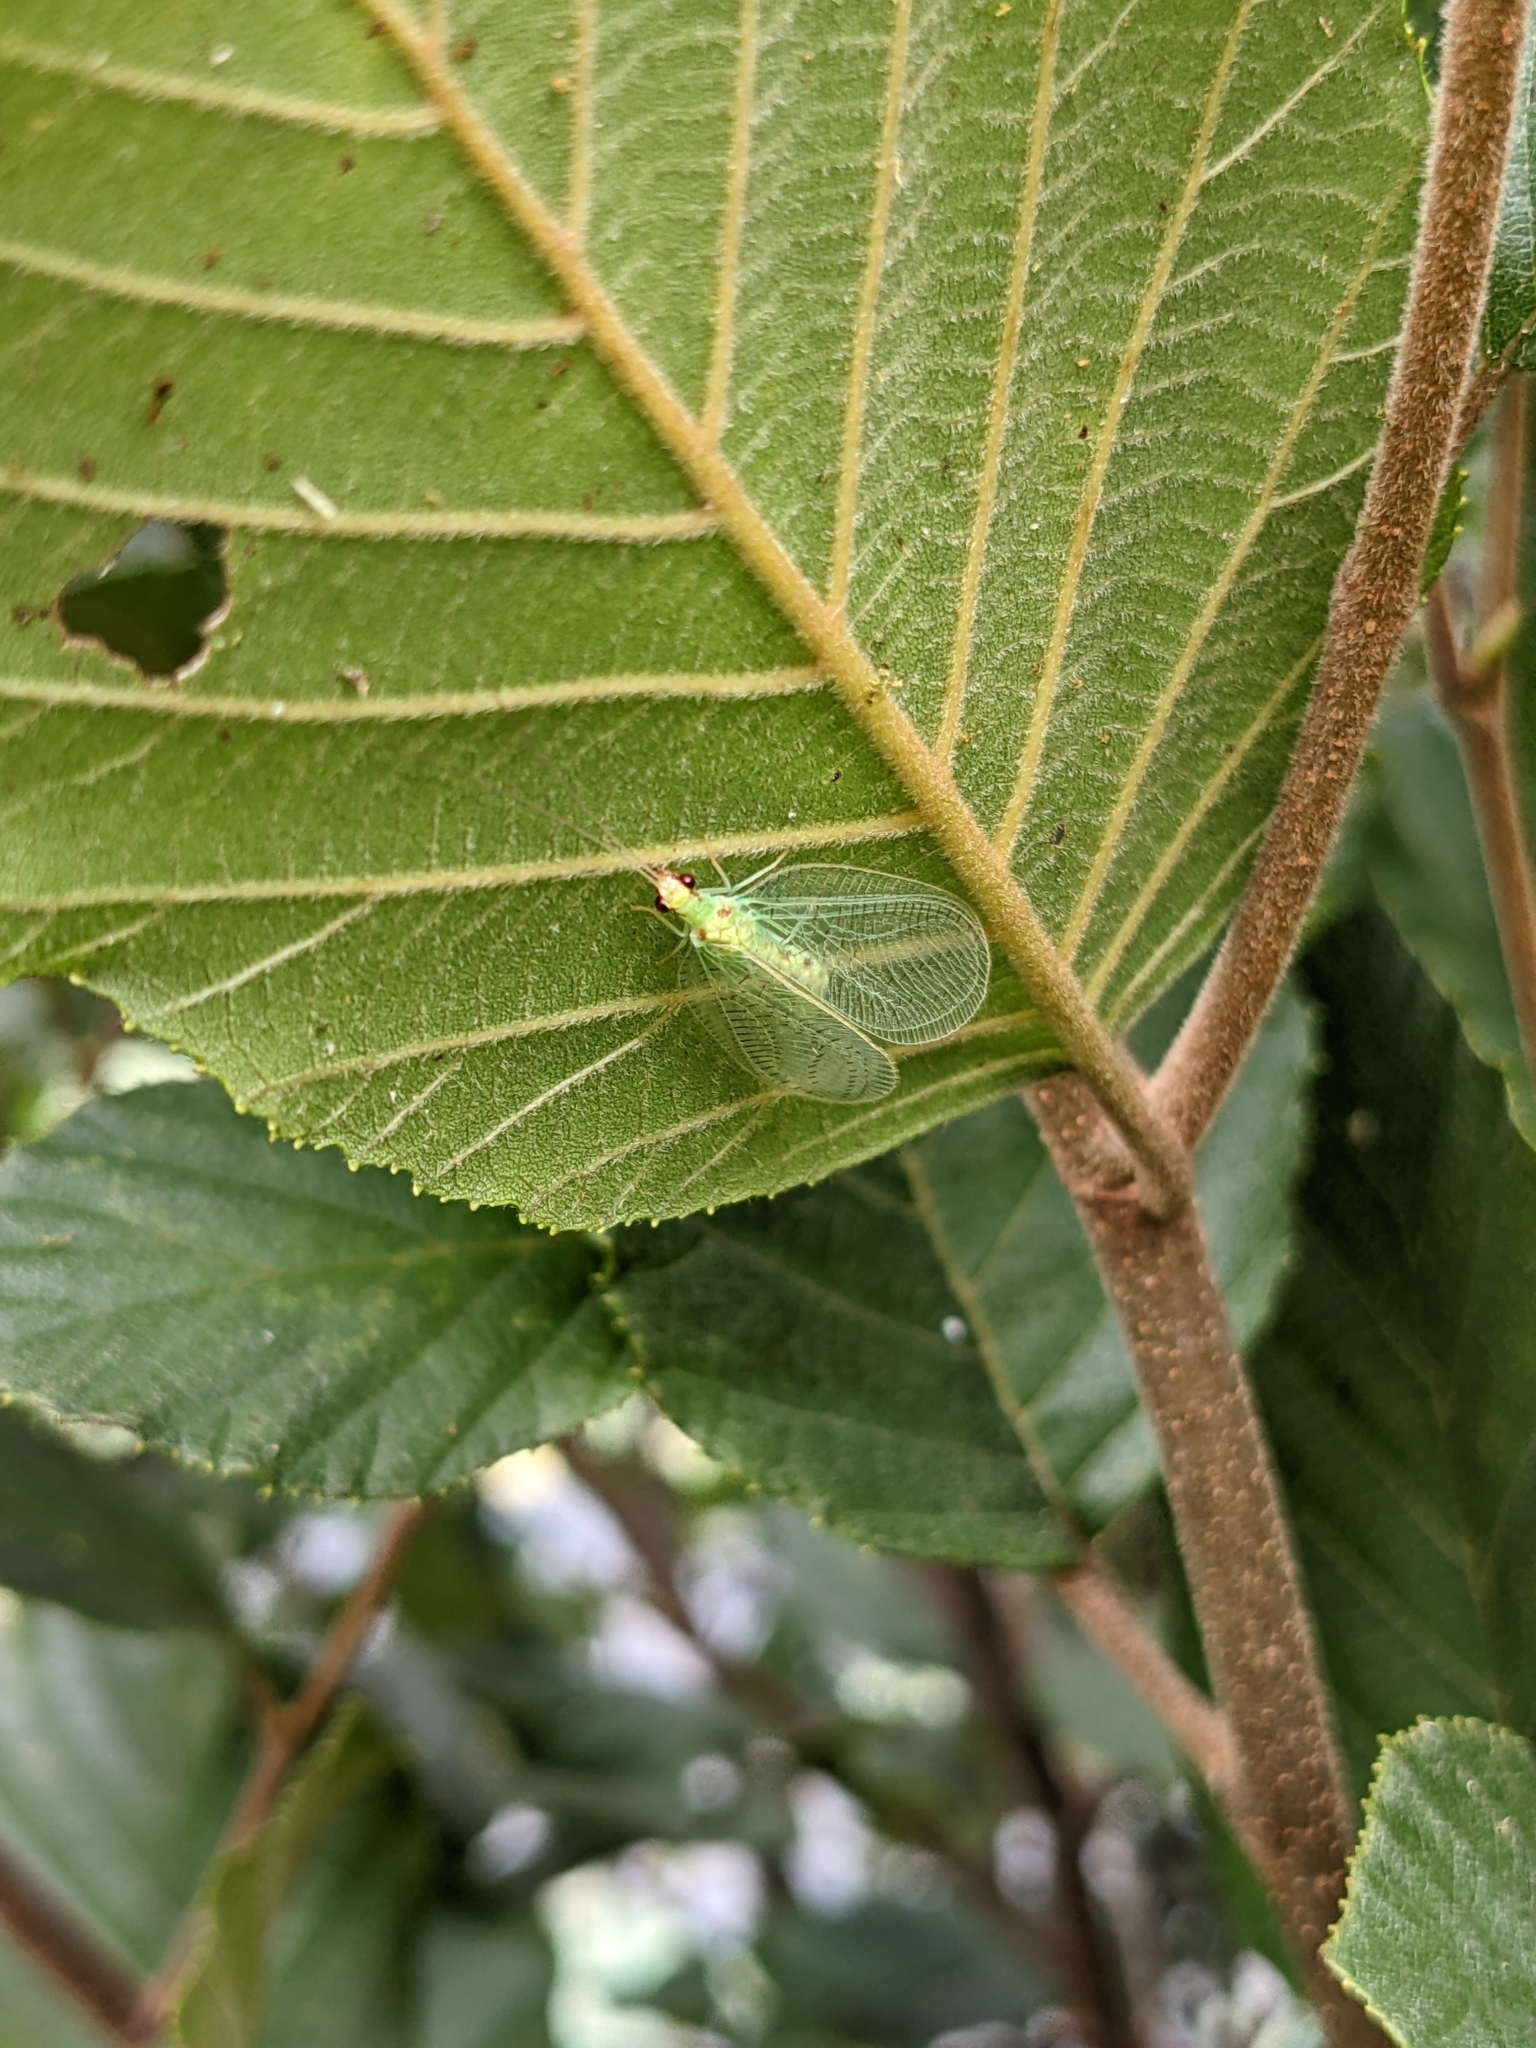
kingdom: Animalia
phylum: Arthropoda
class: Insecta
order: Neuroptera
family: Chrysopidae
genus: Chrysopa
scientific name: Chrysopa quadripunctata
